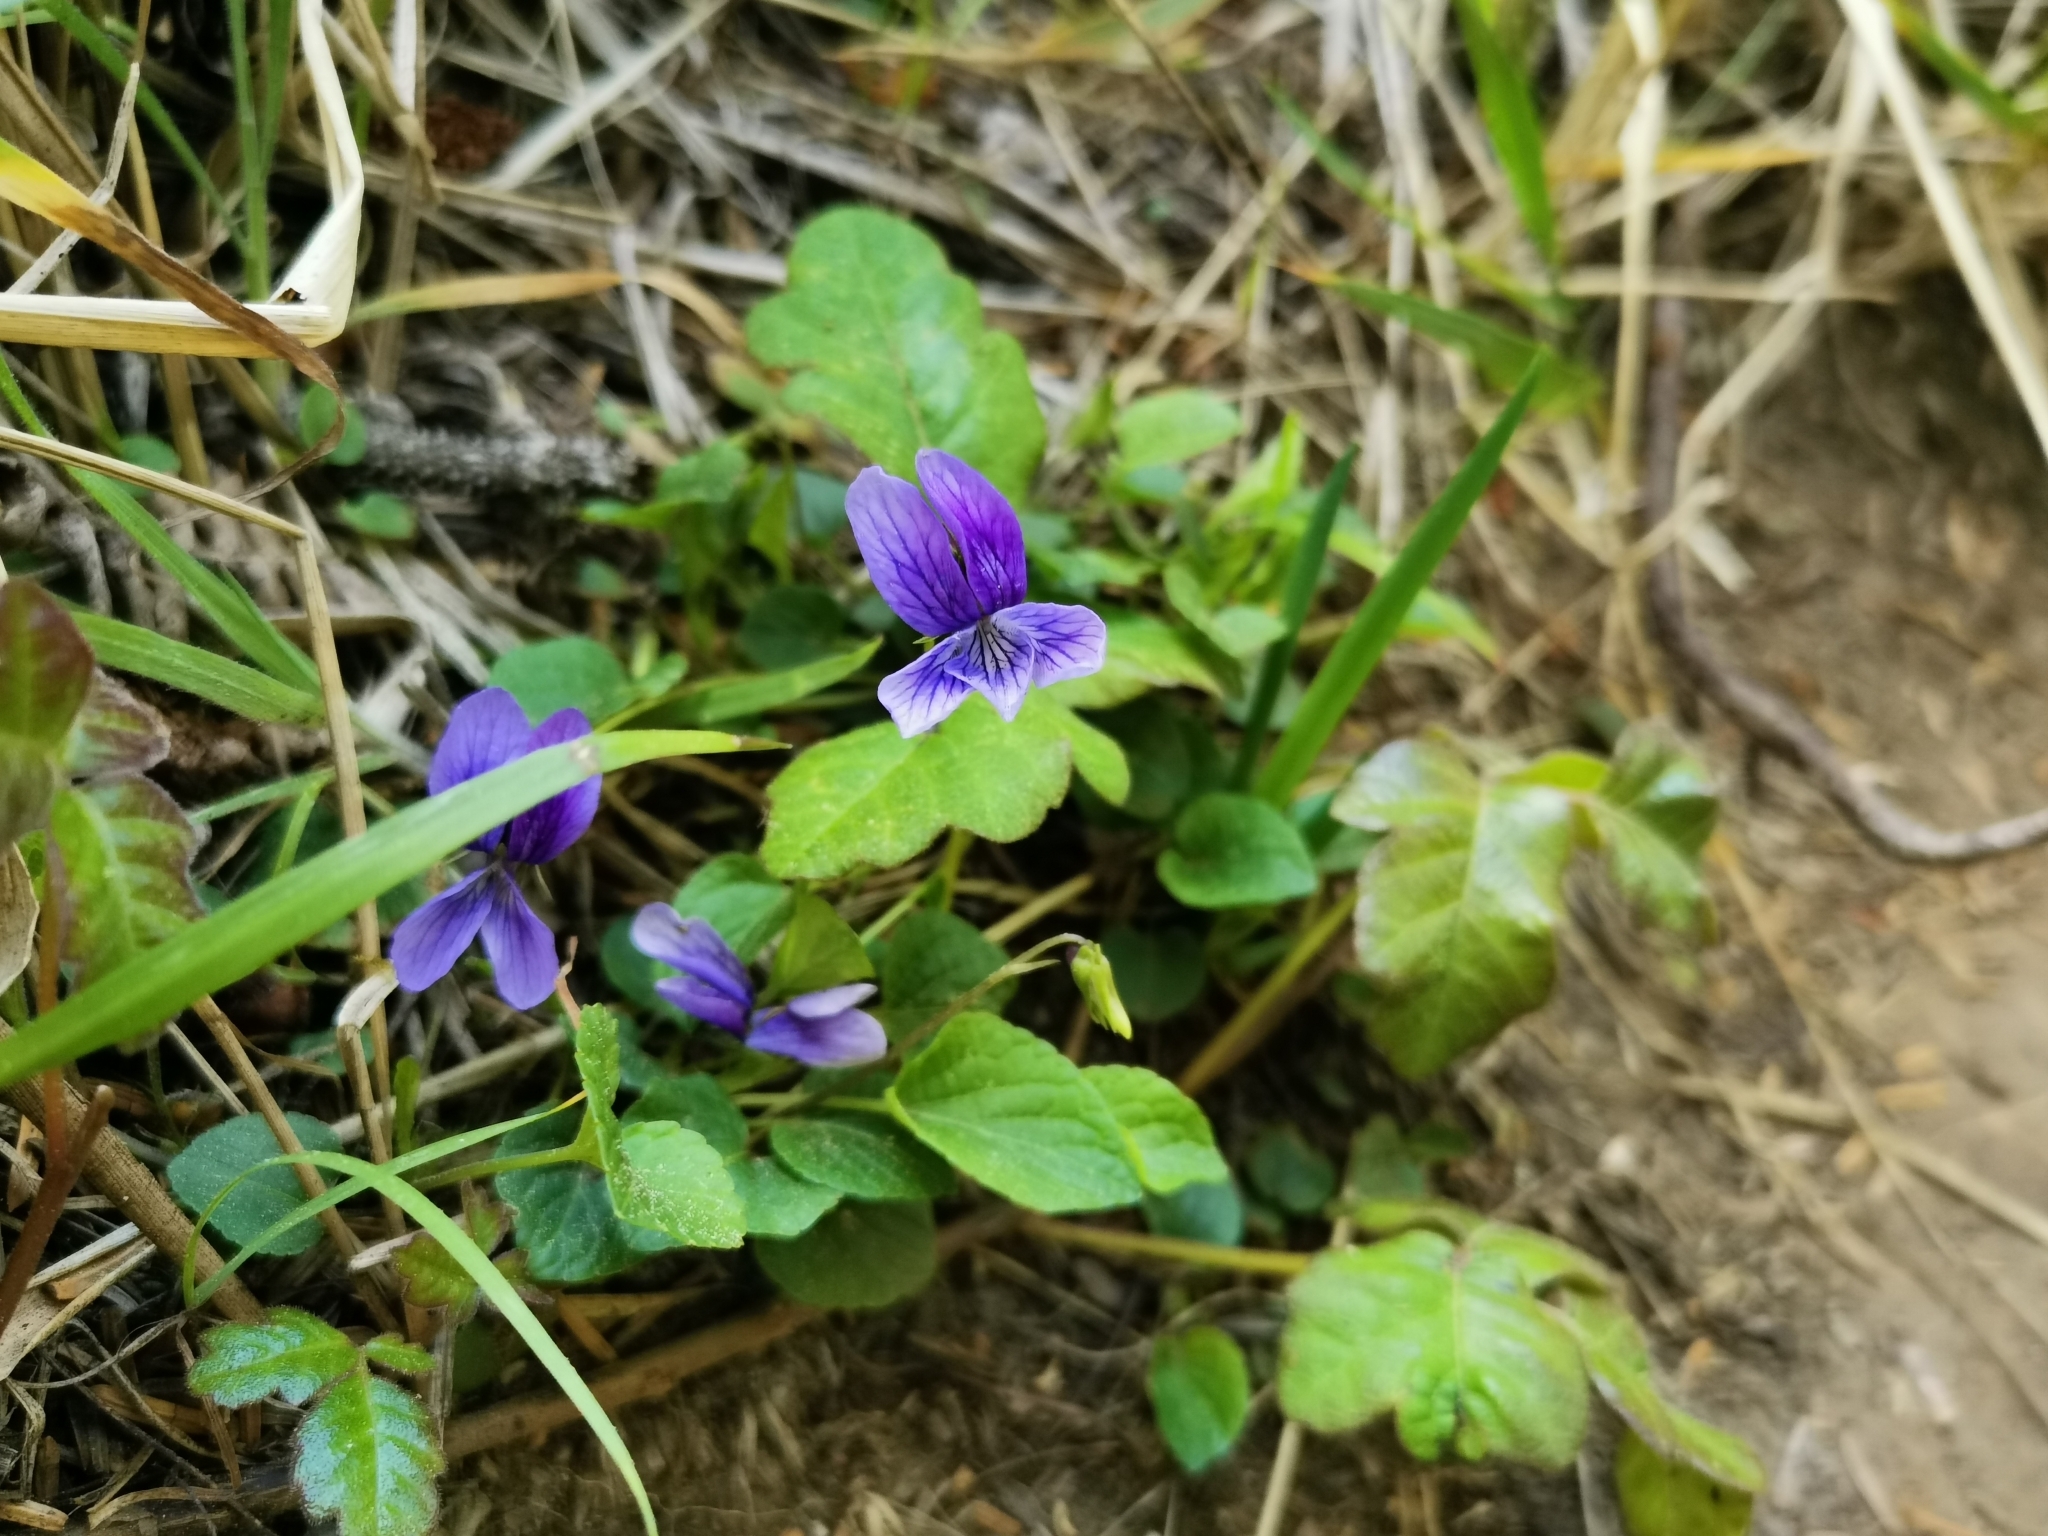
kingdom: Plantae
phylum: Tracheophyta
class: Magnoliopsida
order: Malpighiales
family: Violaceae
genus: Viola
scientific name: Viola adunca
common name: Sand violet
